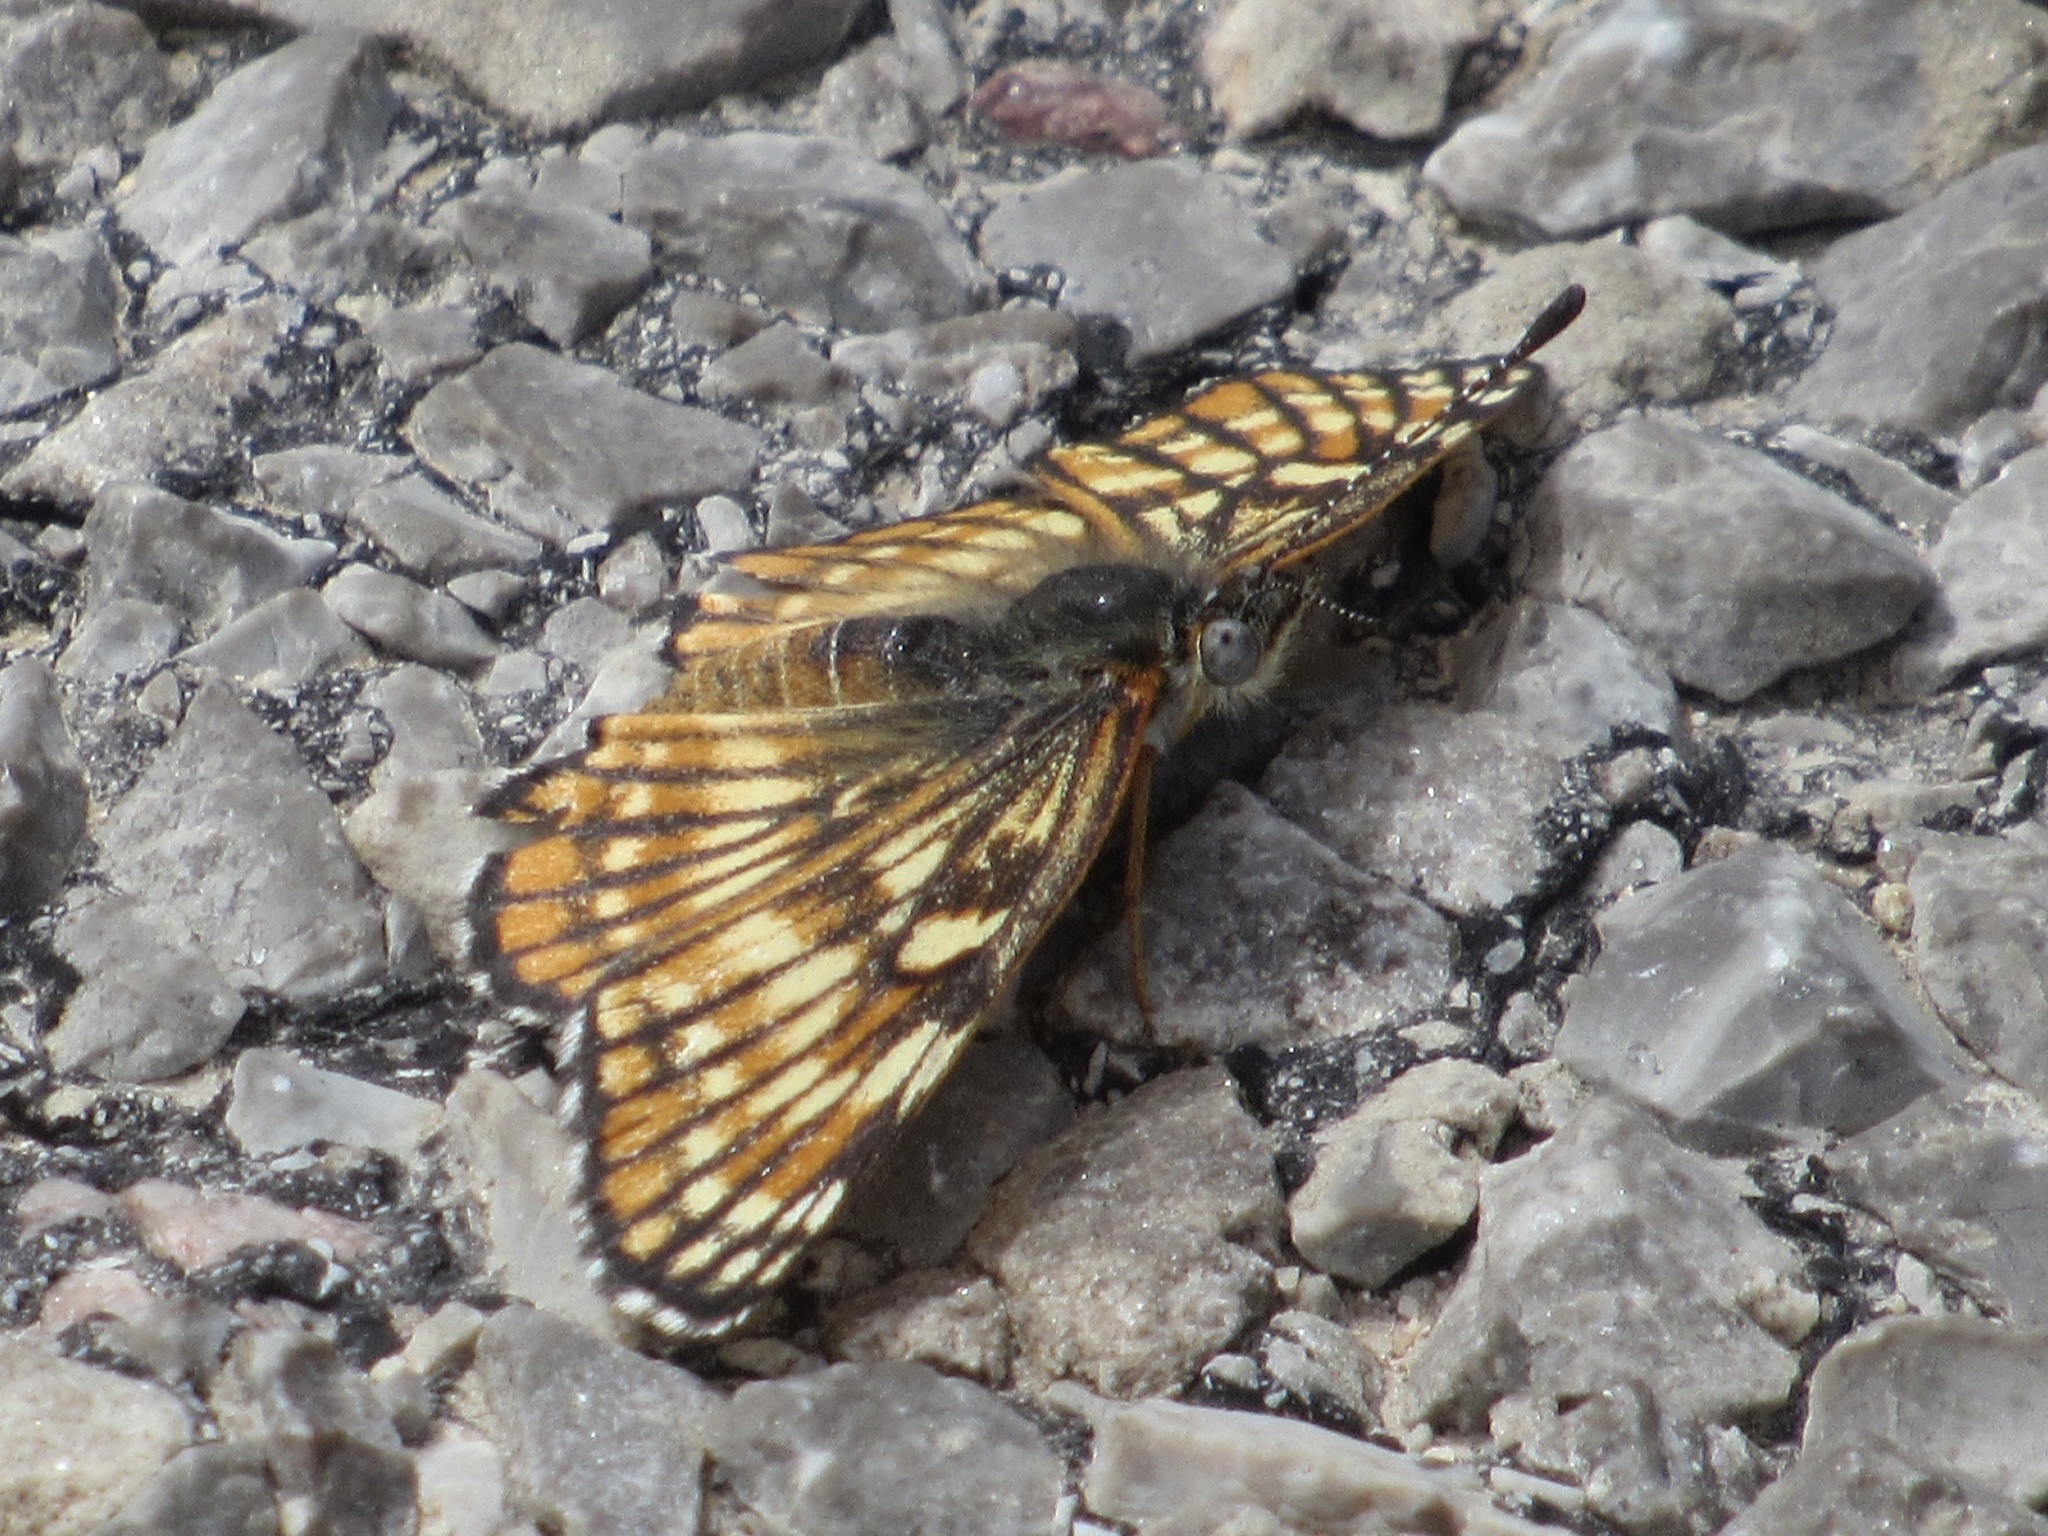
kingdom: Animalia
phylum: Arthropoda
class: Insecta
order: Lepidoptera
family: Nymphalidae
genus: Thessalia
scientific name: Thessalia leanira
